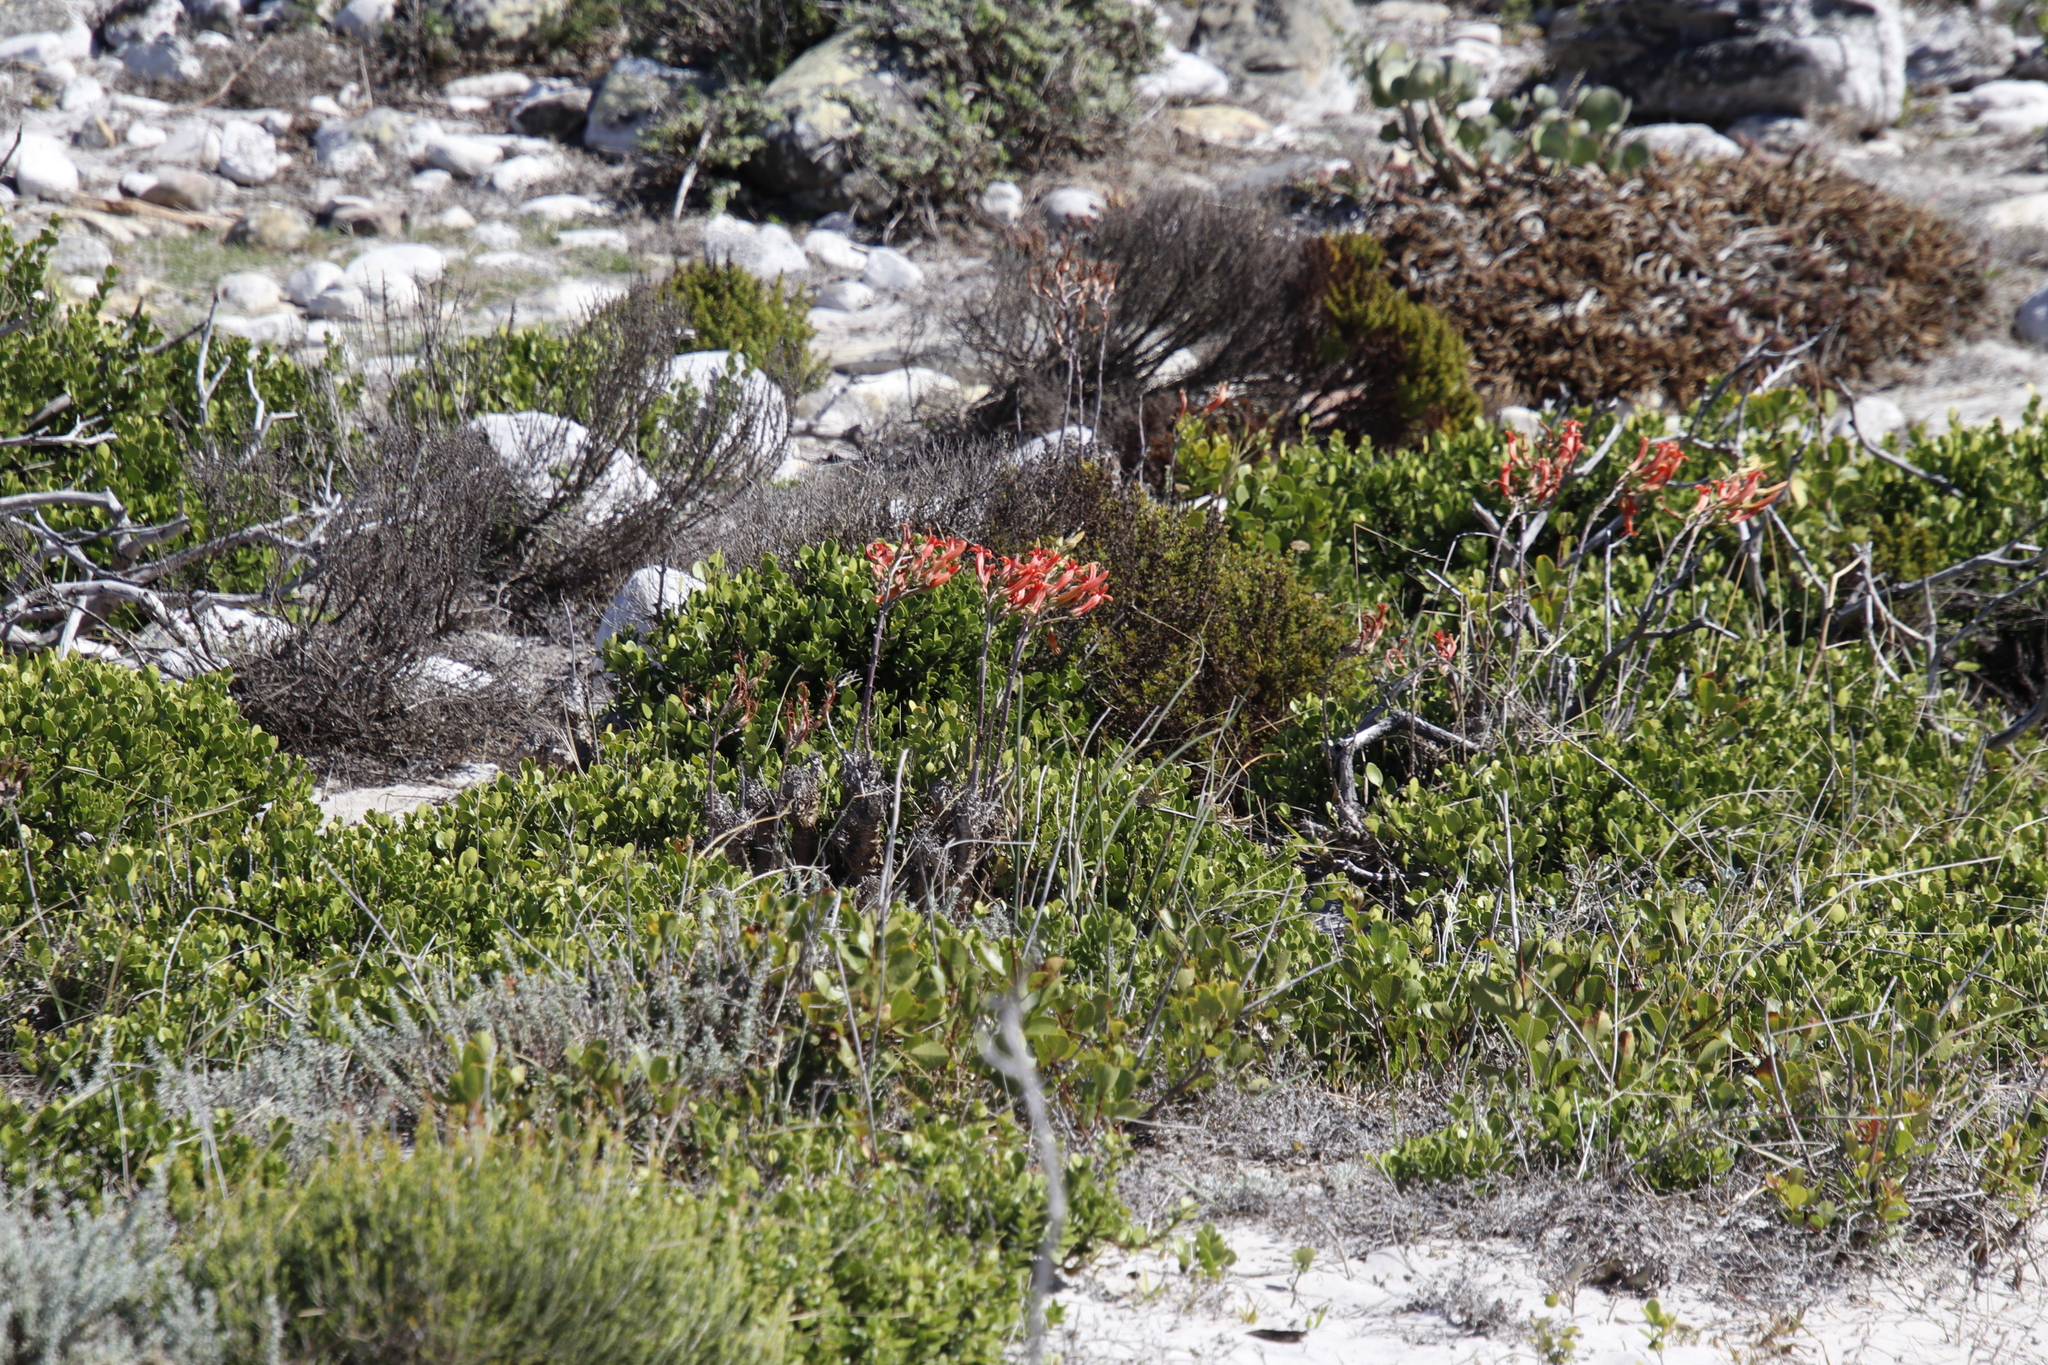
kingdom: Plantae
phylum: Tracheophyta
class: Magnoliopsida
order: Saxifragales
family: Crassulaceae
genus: Tylecodon
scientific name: Tylecodon grandiflorus
